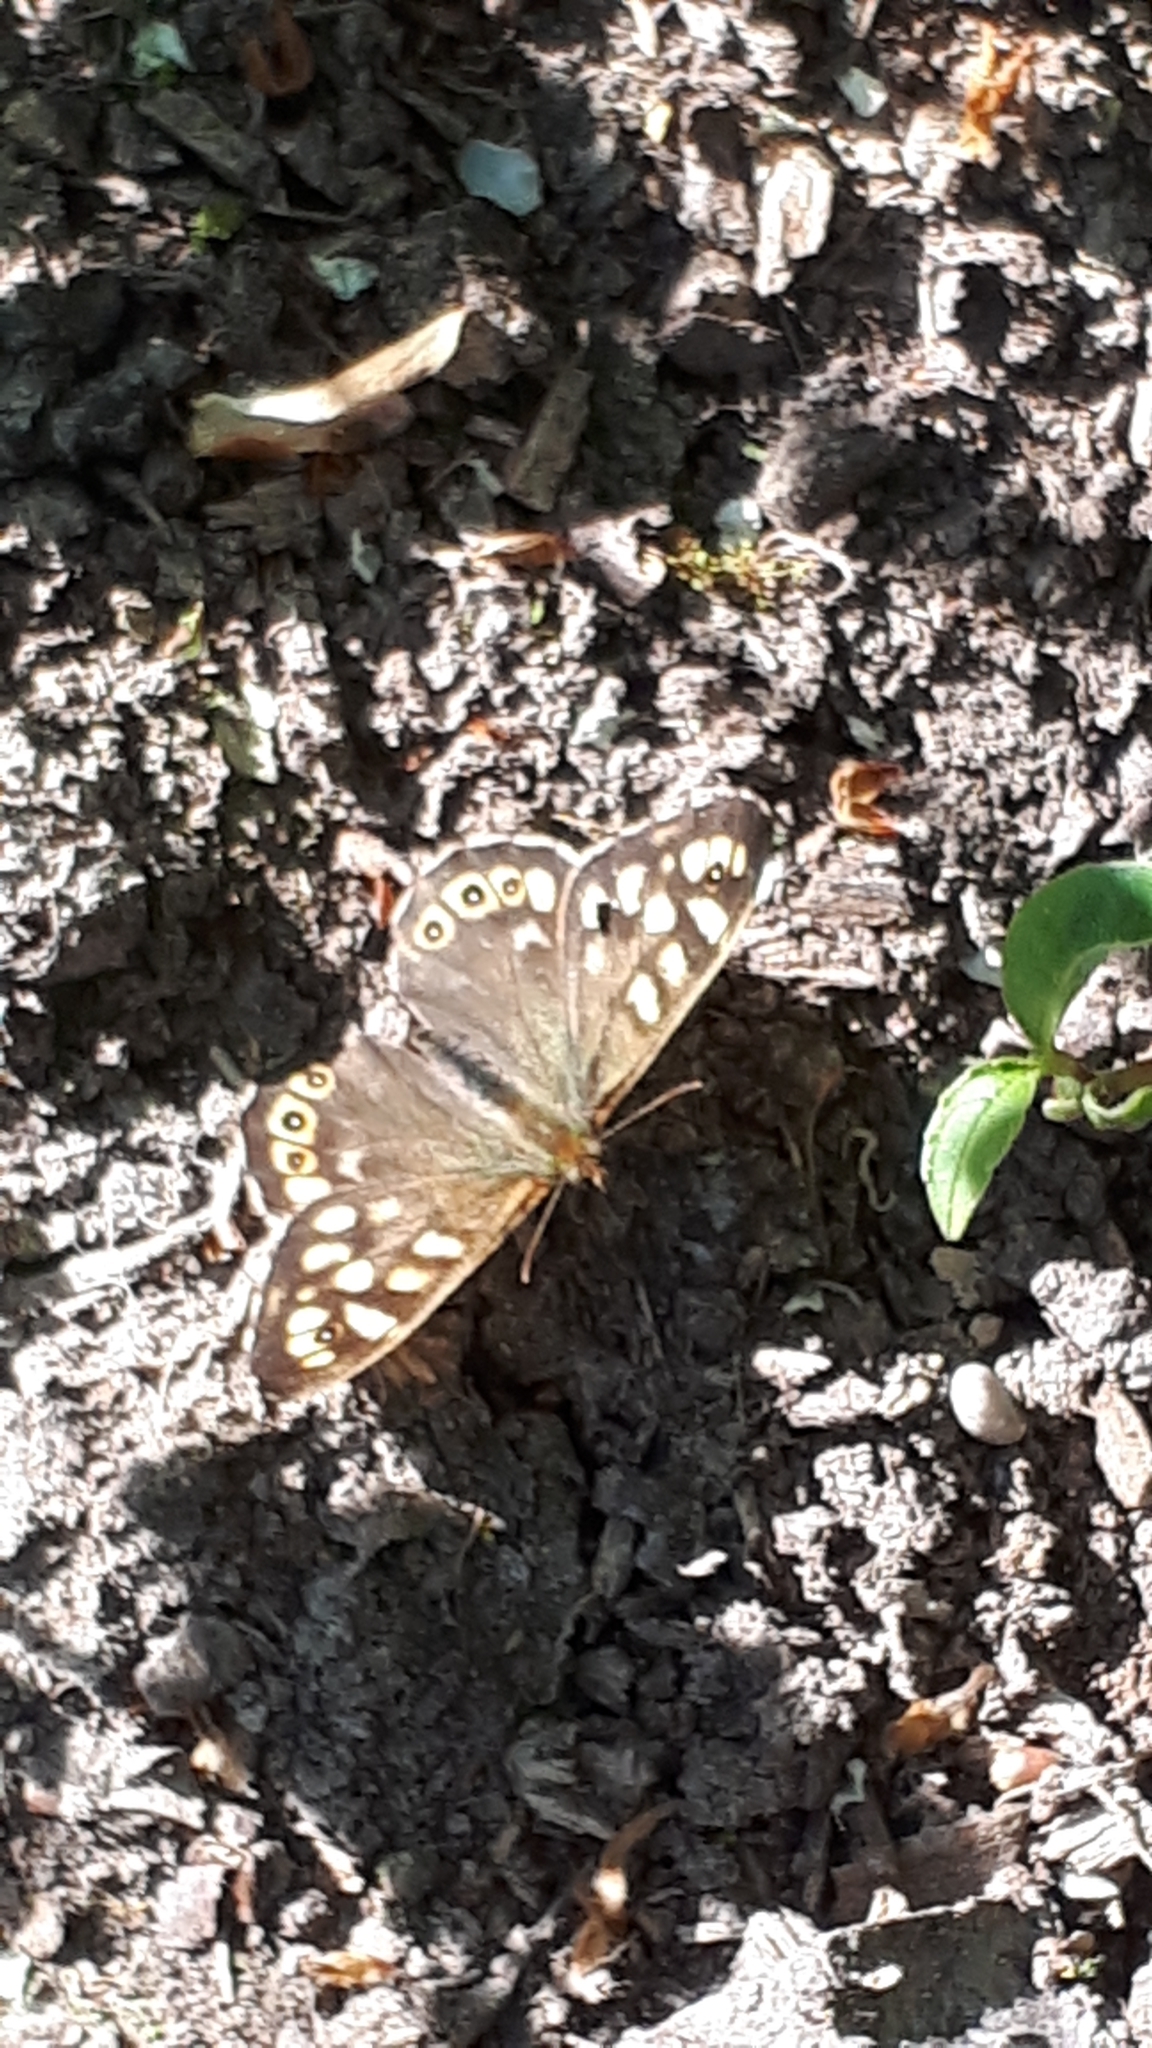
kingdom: Animalia
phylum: Arthropoda
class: Insecta
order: Lepidoptera
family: Nymphalidae
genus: Pararge
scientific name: Pararge aegeria
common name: Speckled wood
